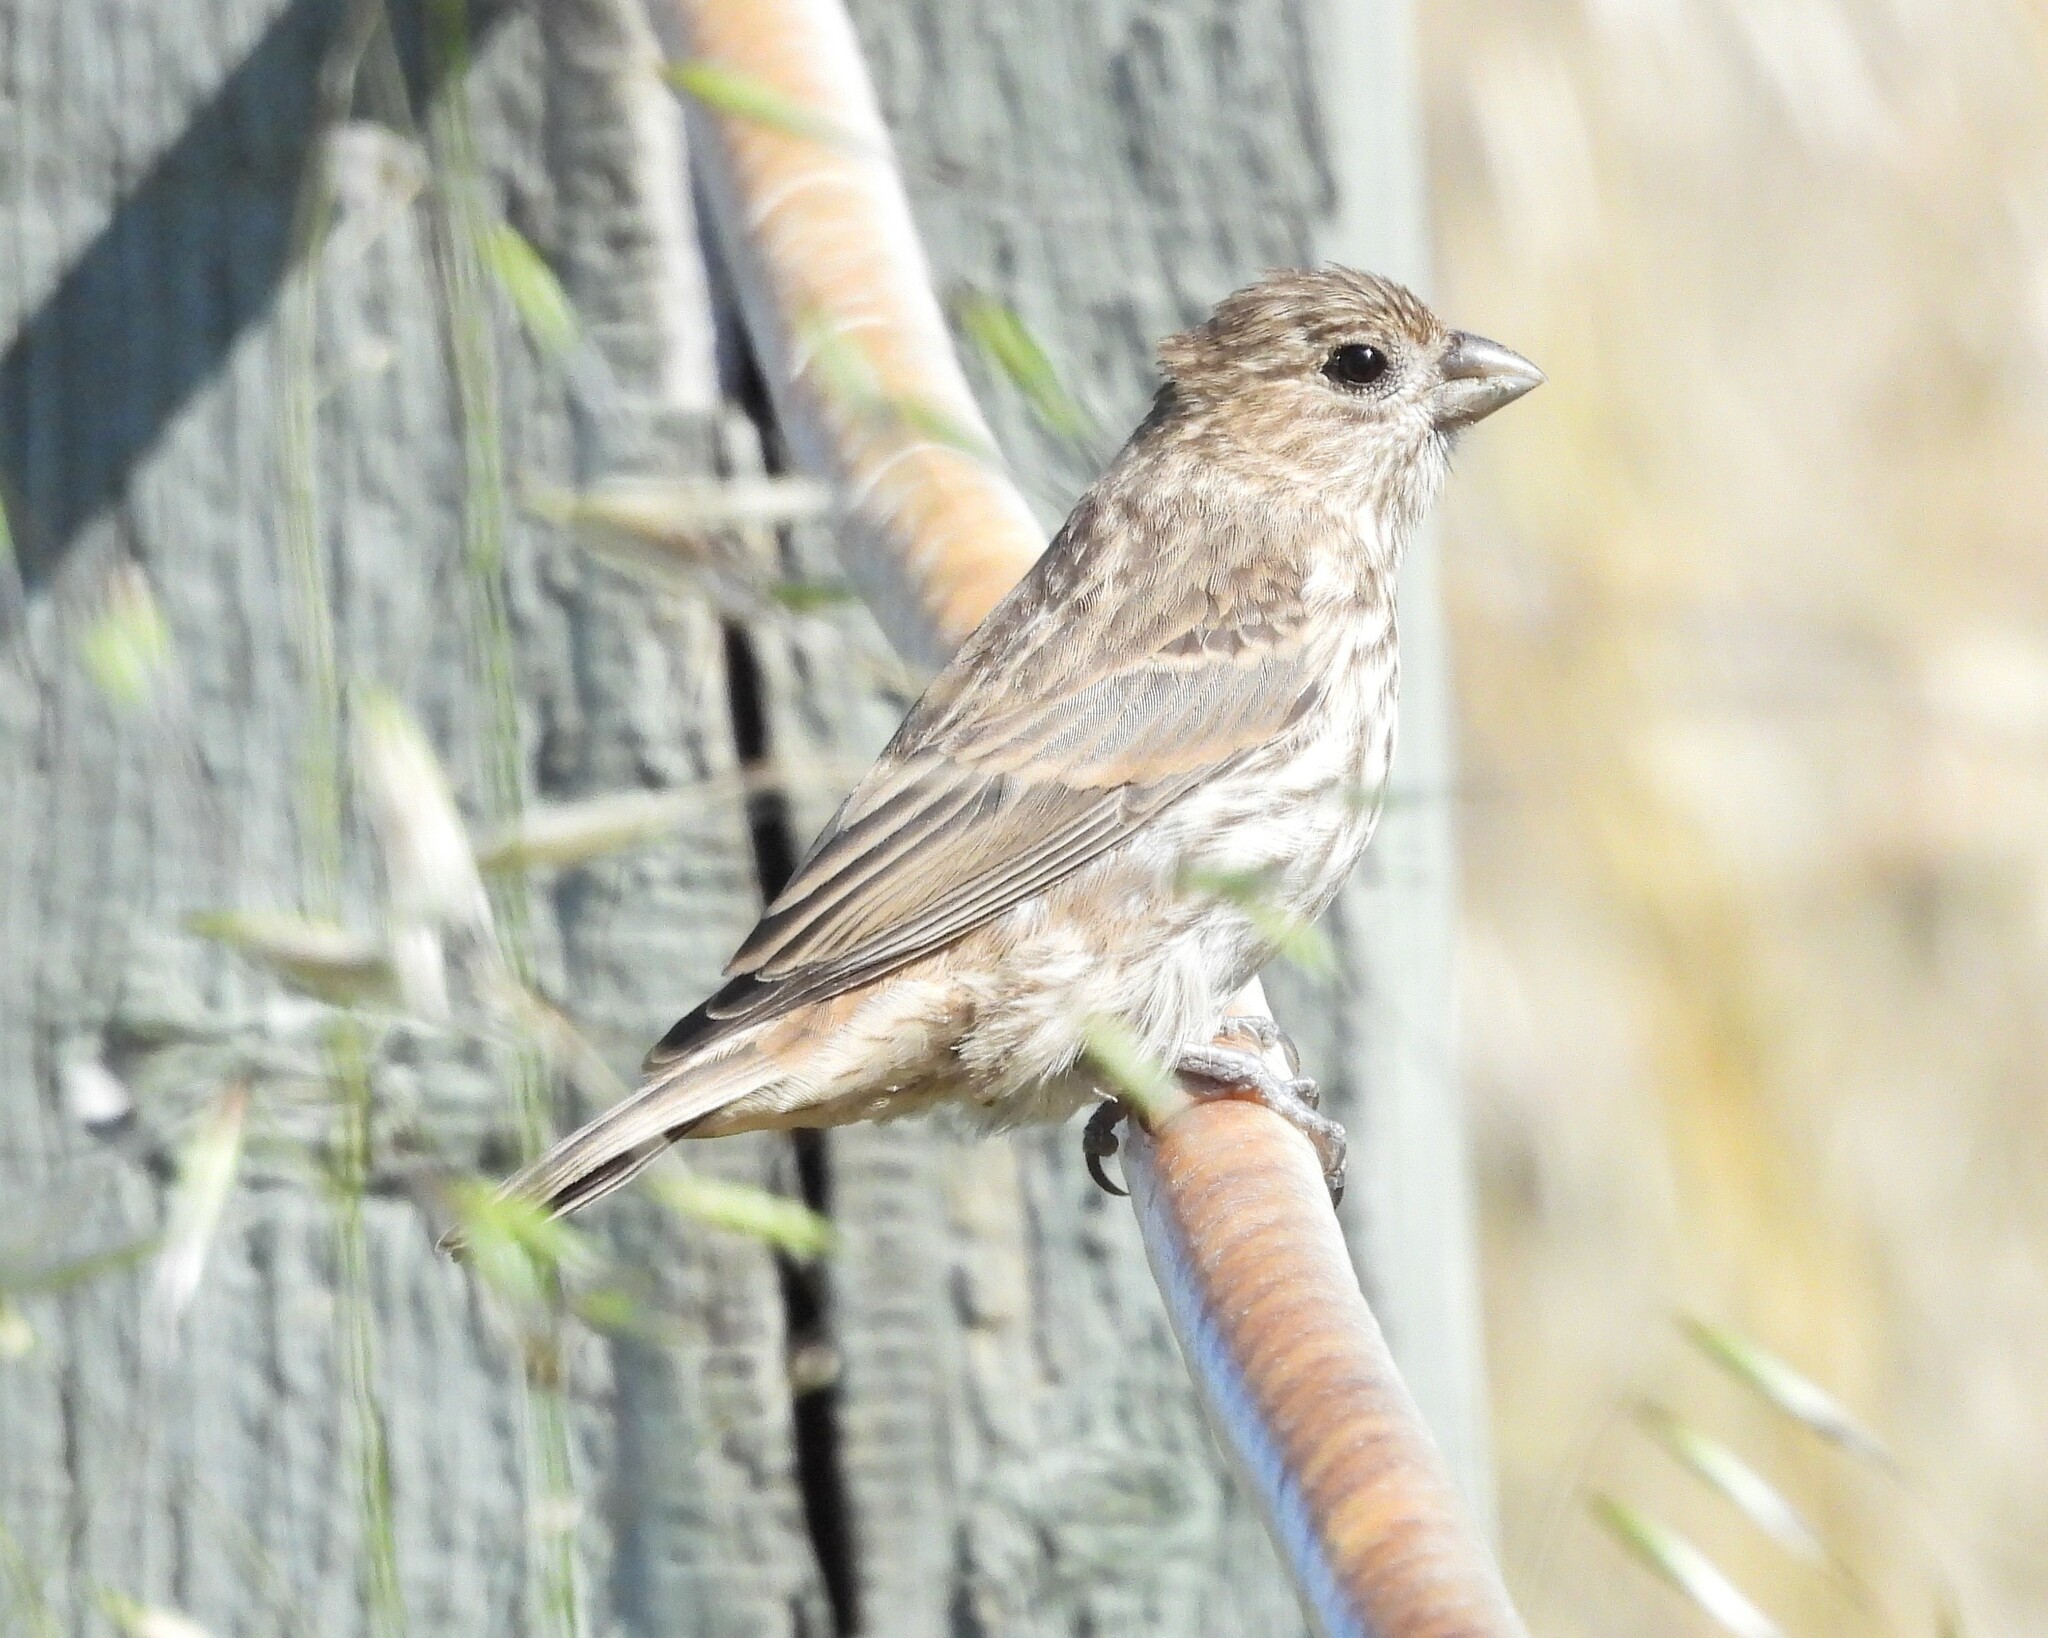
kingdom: Animalia
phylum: Chordata
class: Aves
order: Passeriformes
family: Fringillidae
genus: Haemorhous
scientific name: Haemorhous mexicanus
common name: House finch
